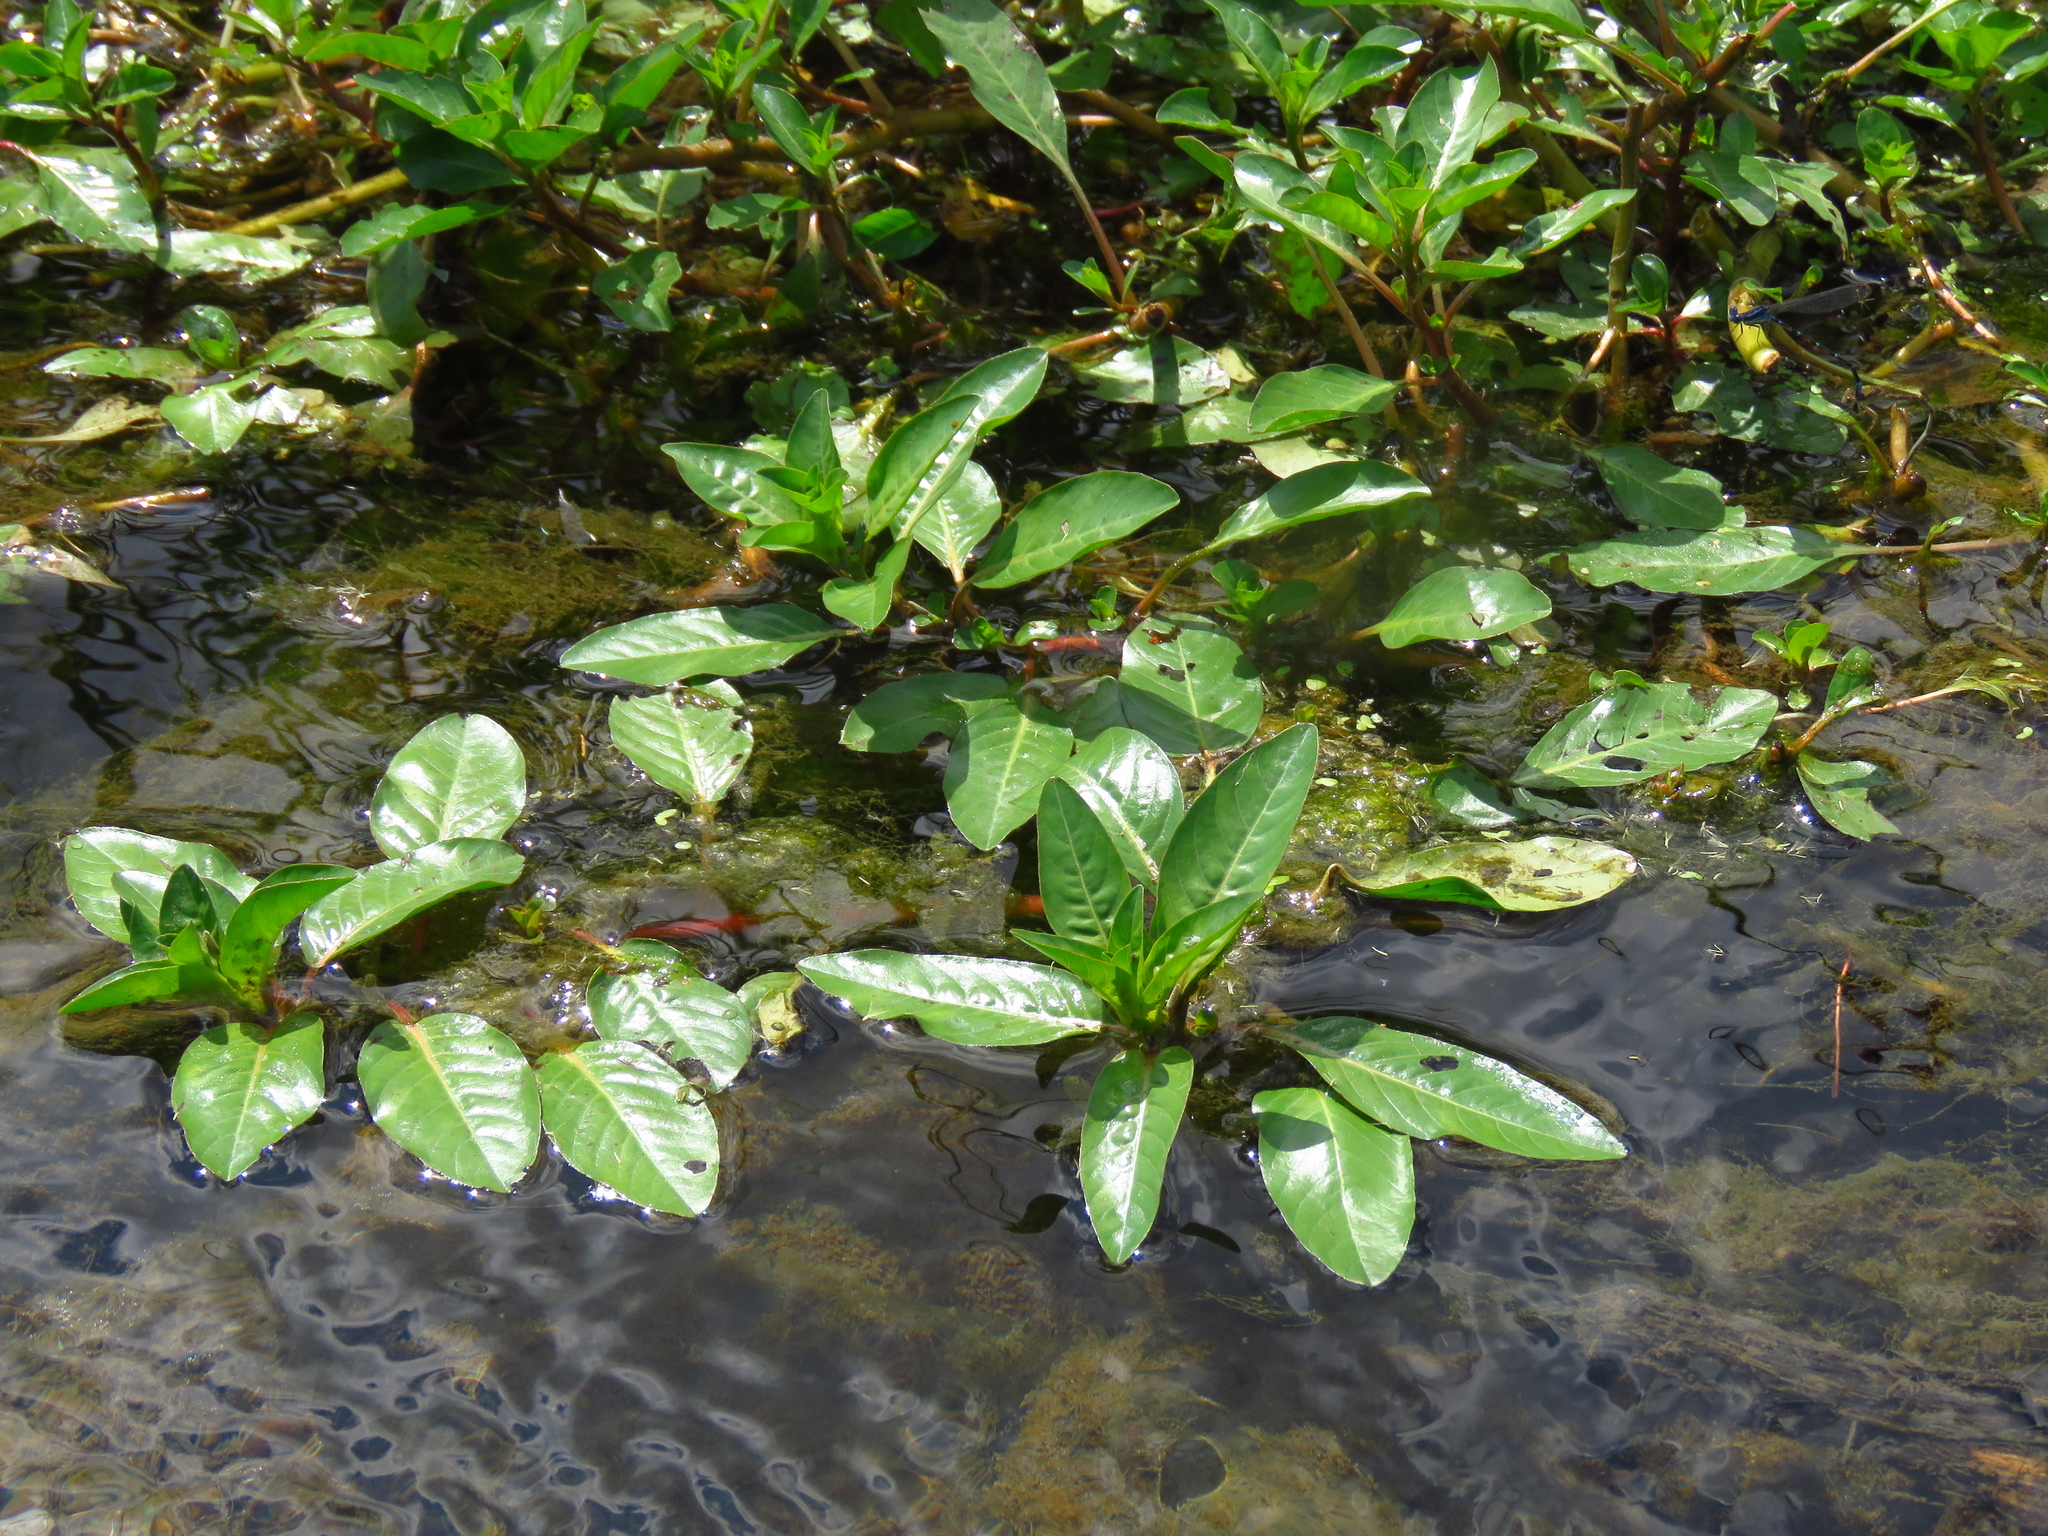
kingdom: Plantae
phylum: Tracheophyta
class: Magnoliopsida
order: Myrtales
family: Onagraceae
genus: Ludwigia
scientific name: Ludwigia peploides
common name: Floating primrose-willow
